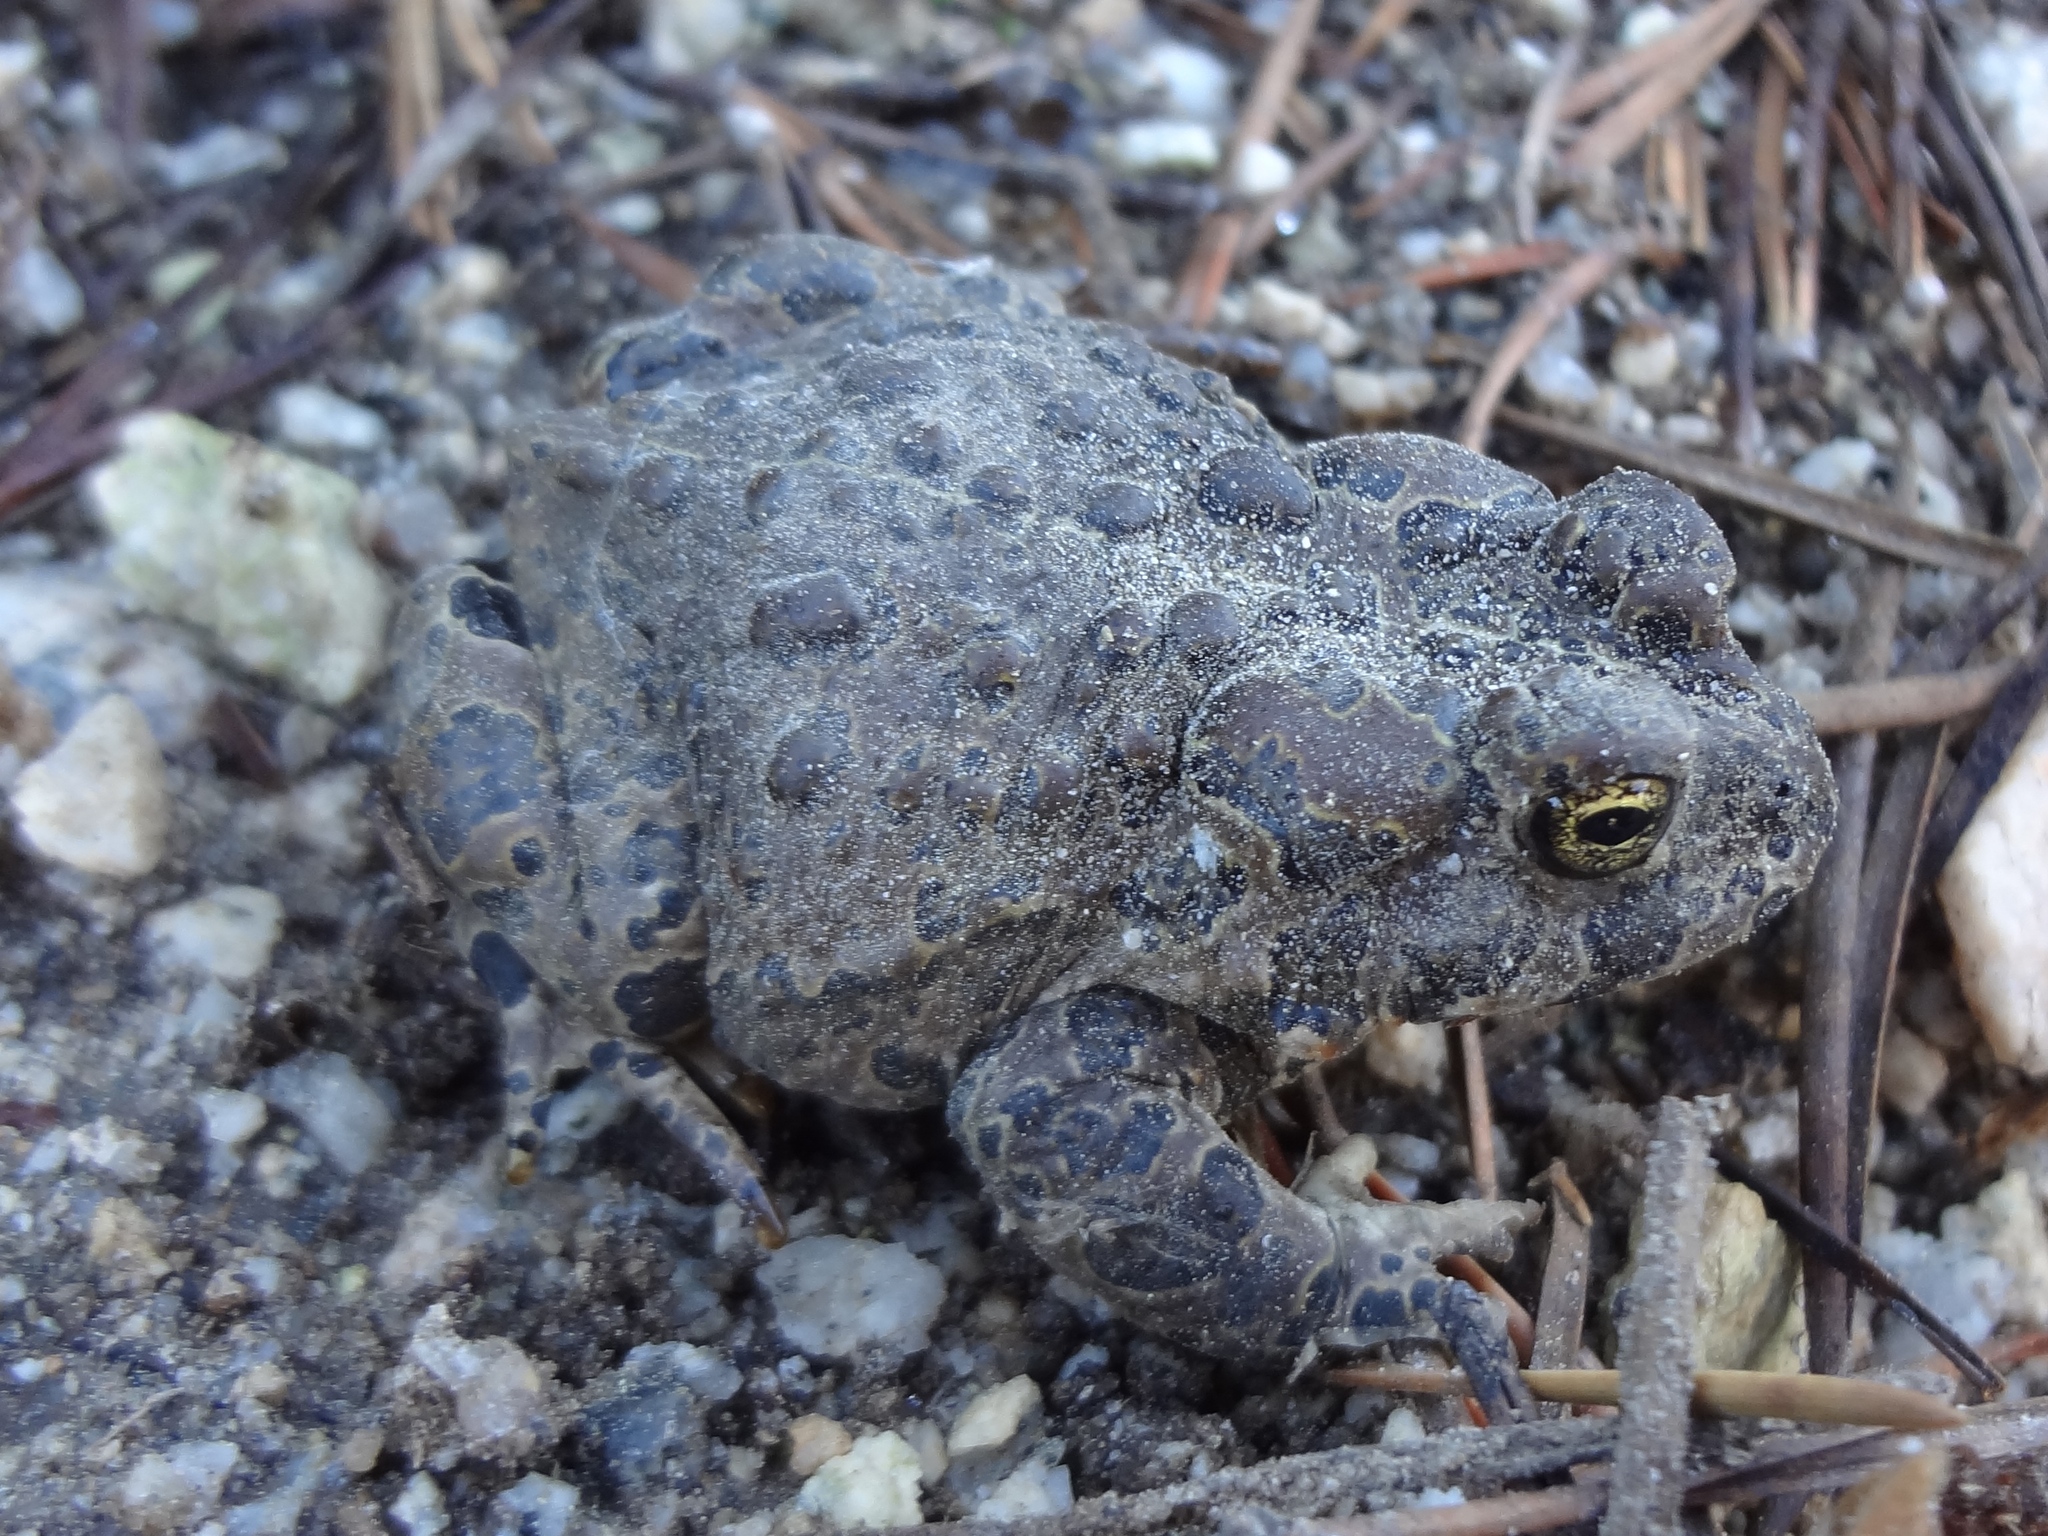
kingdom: Animalia
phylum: Chordata
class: Amphibia
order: Anura
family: Bufonidae
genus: Anaxyrus
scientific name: Anaxyrus canorus
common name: Yosemite toad
